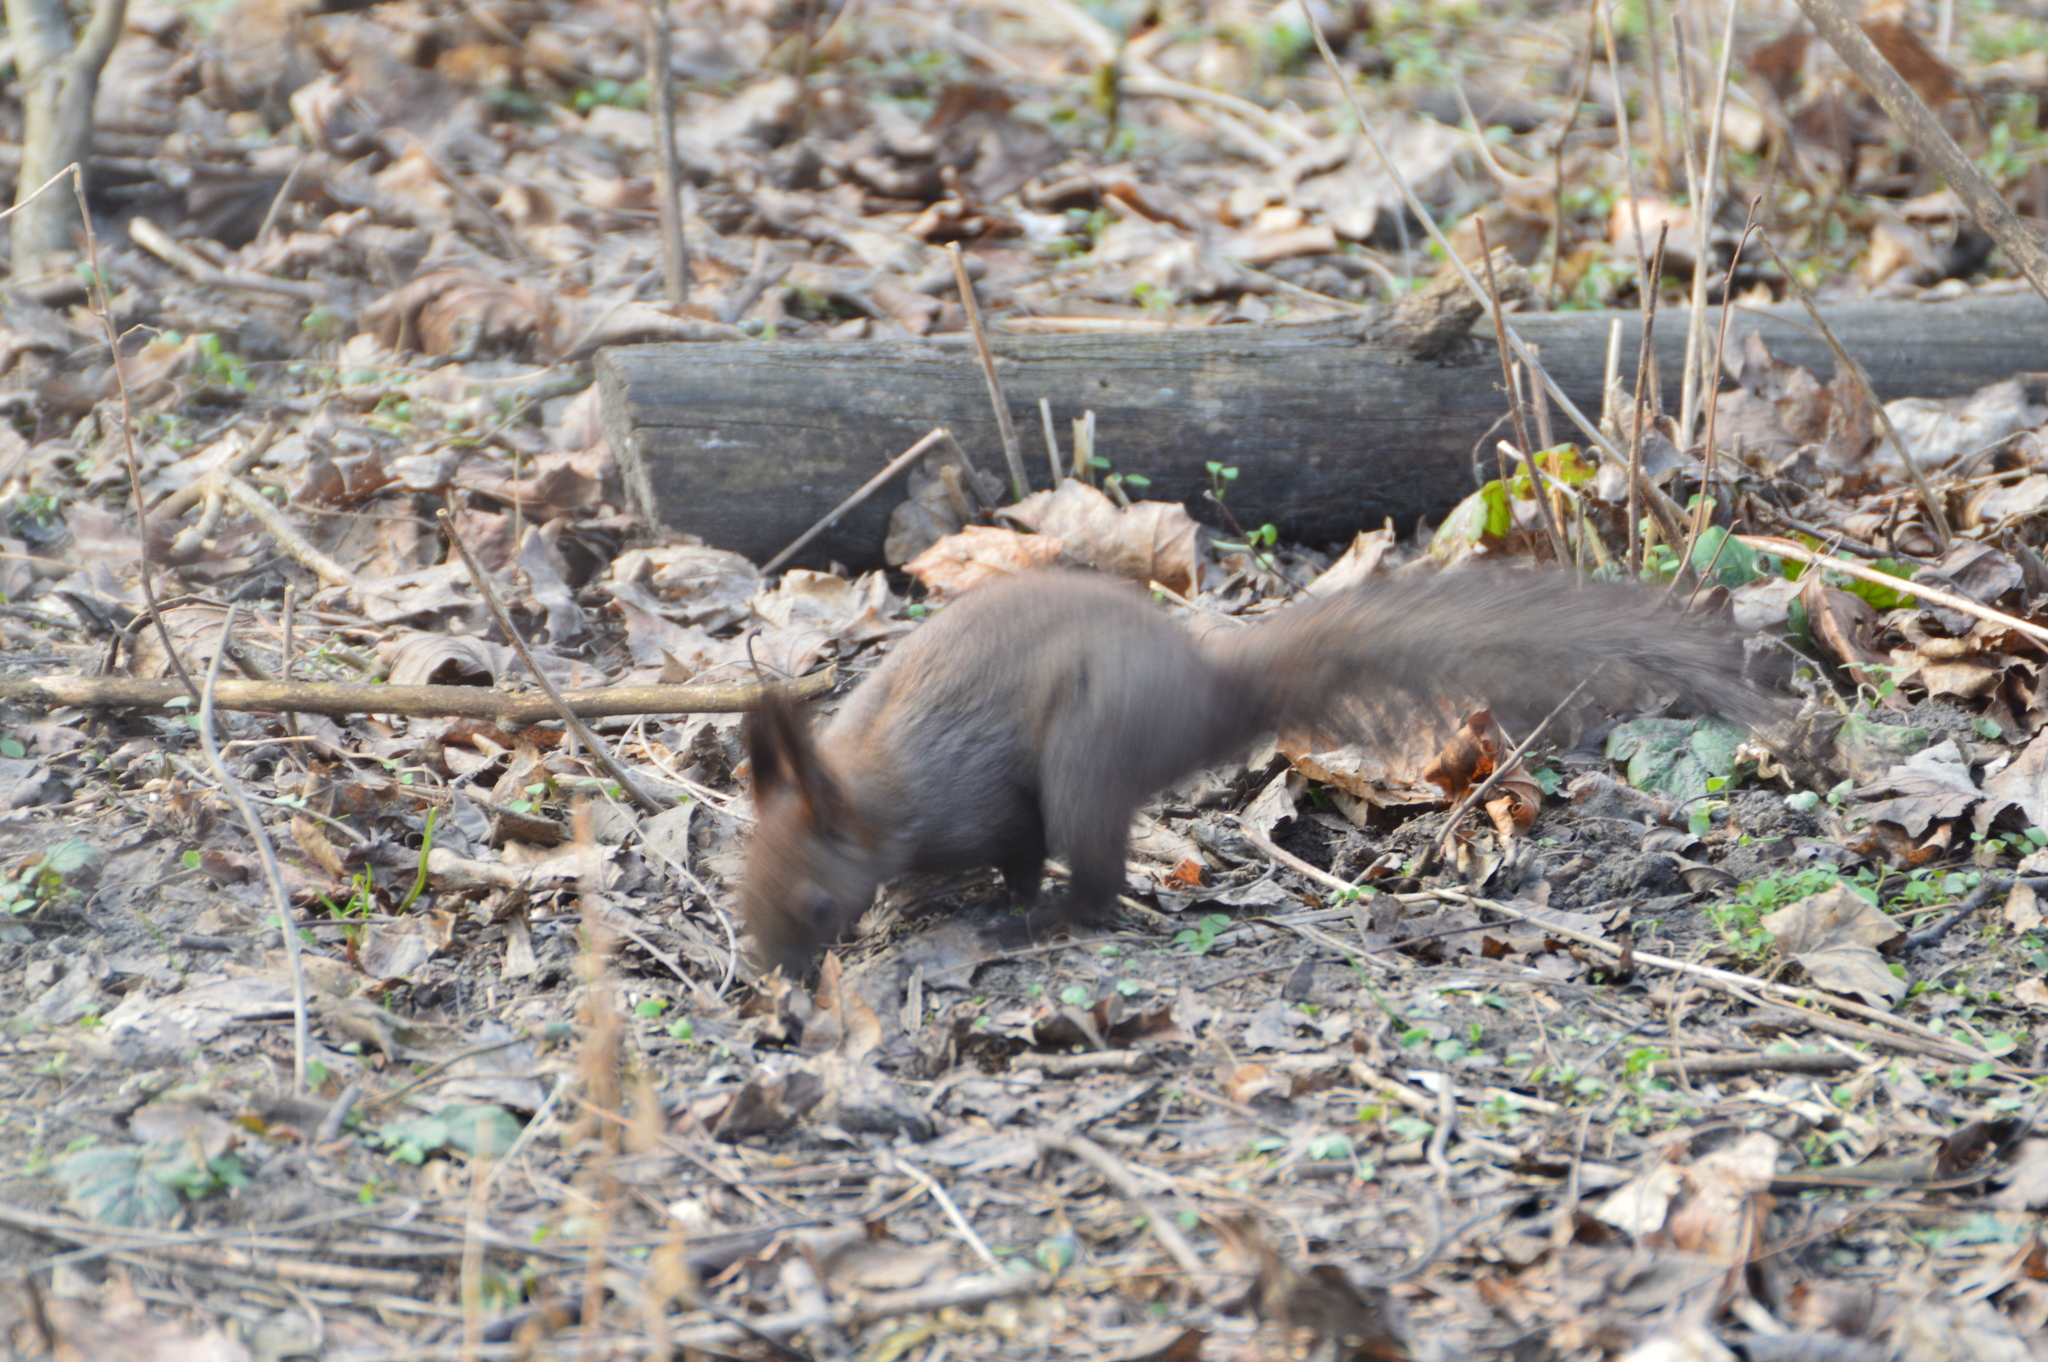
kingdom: Animalia
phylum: Chordata
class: Mammalia
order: Rodentia
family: Sciuridae
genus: Sciurus
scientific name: Sciurus vulgaris
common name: Eurasian red squirrel
